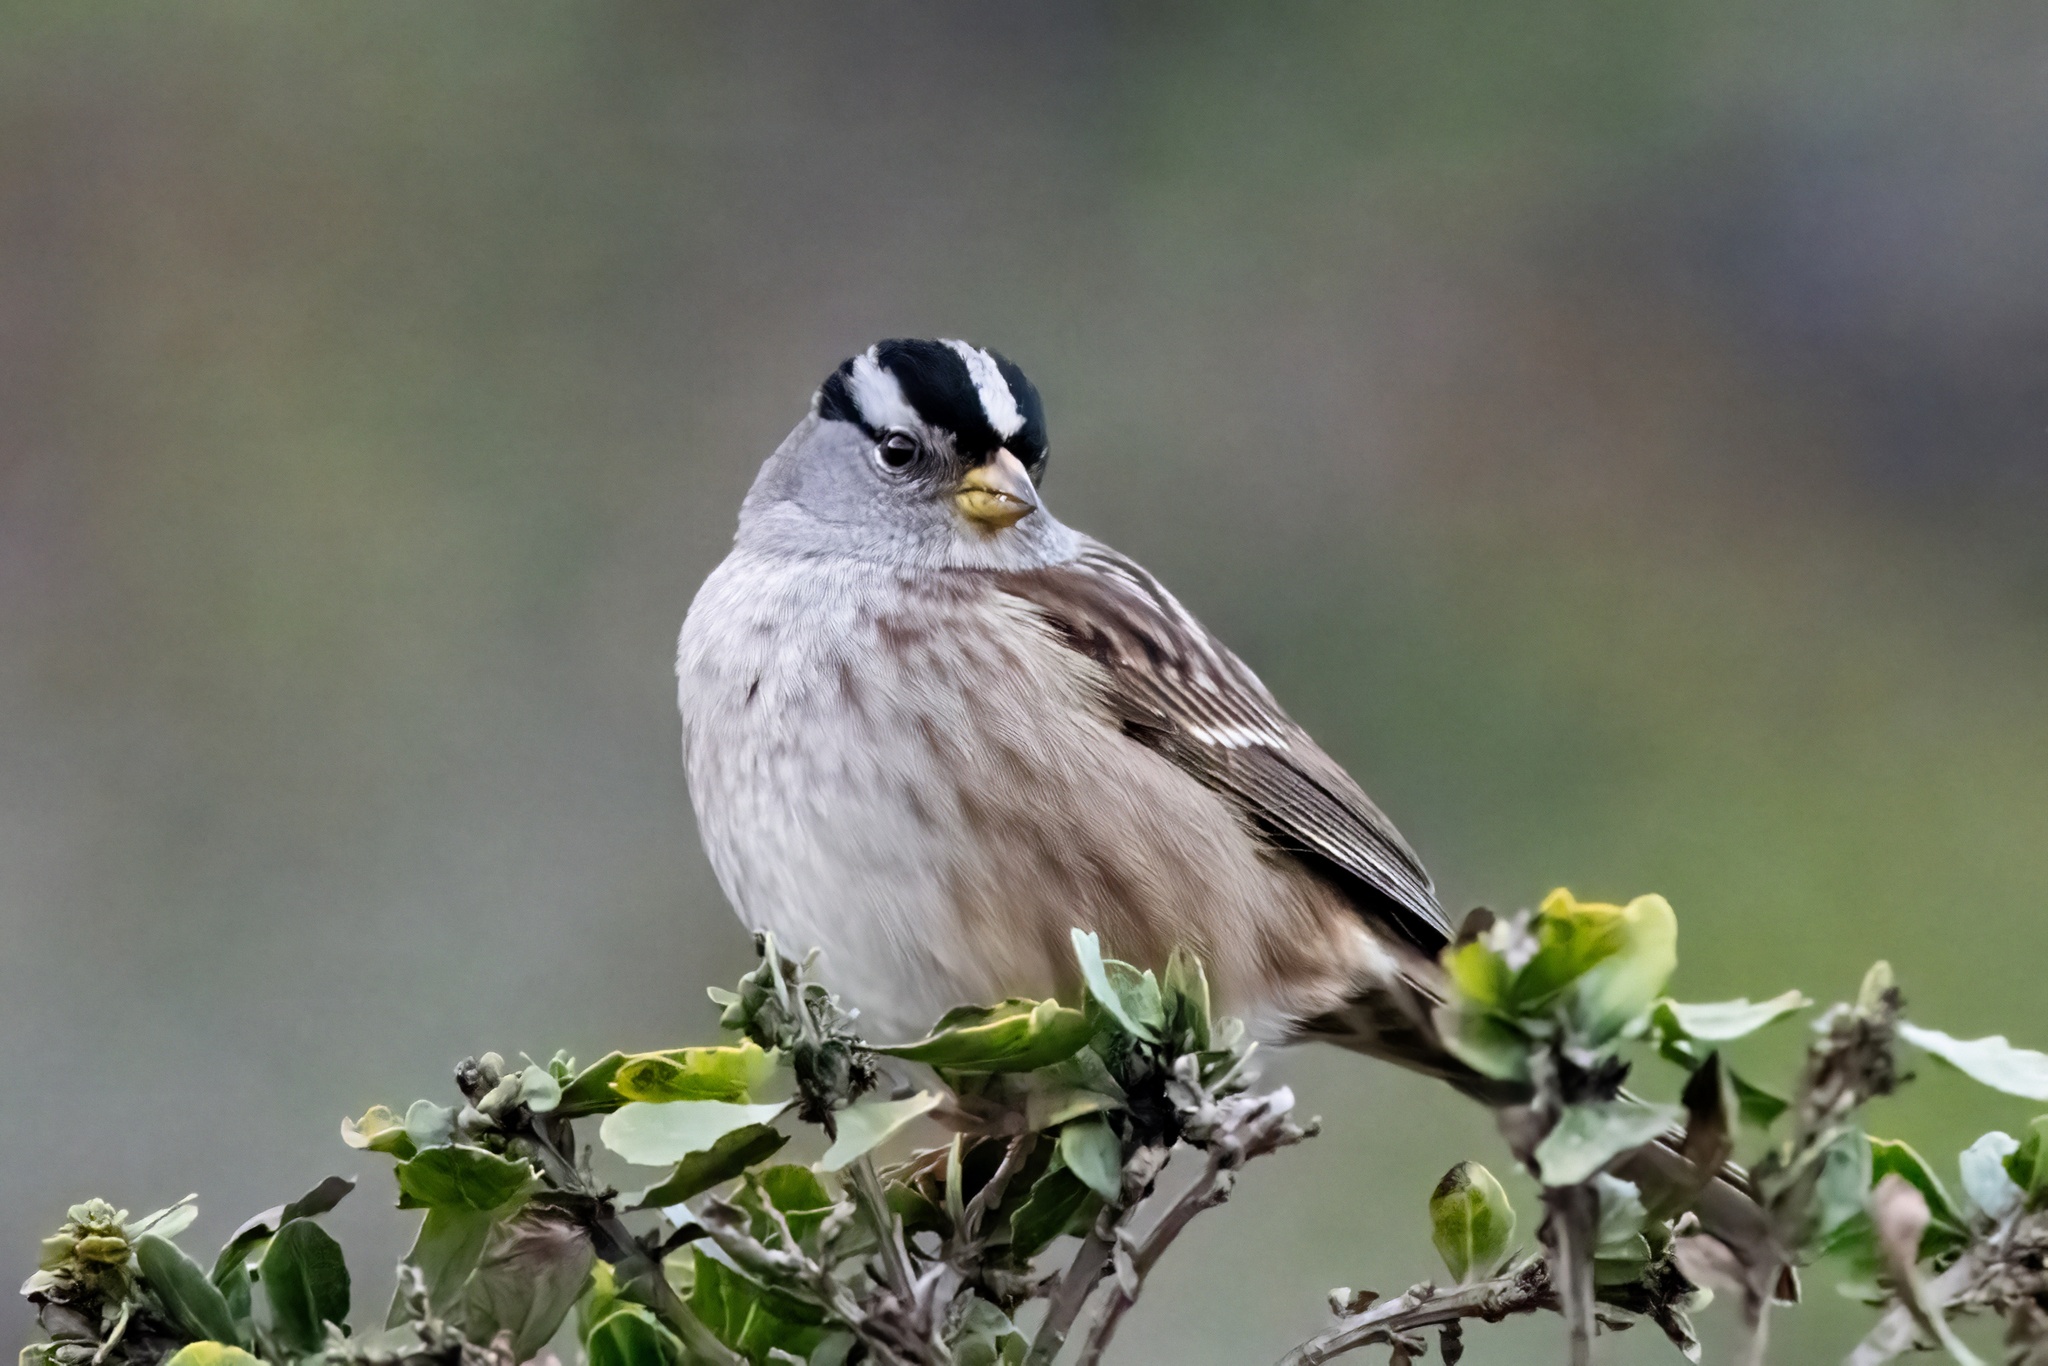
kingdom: Animalia
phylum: Chordata
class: Aves
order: Passeriformes
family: Passerellidae
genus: Zonotrichia
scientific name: Zonotrichia leucophrys
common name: White-crowned sparrow
